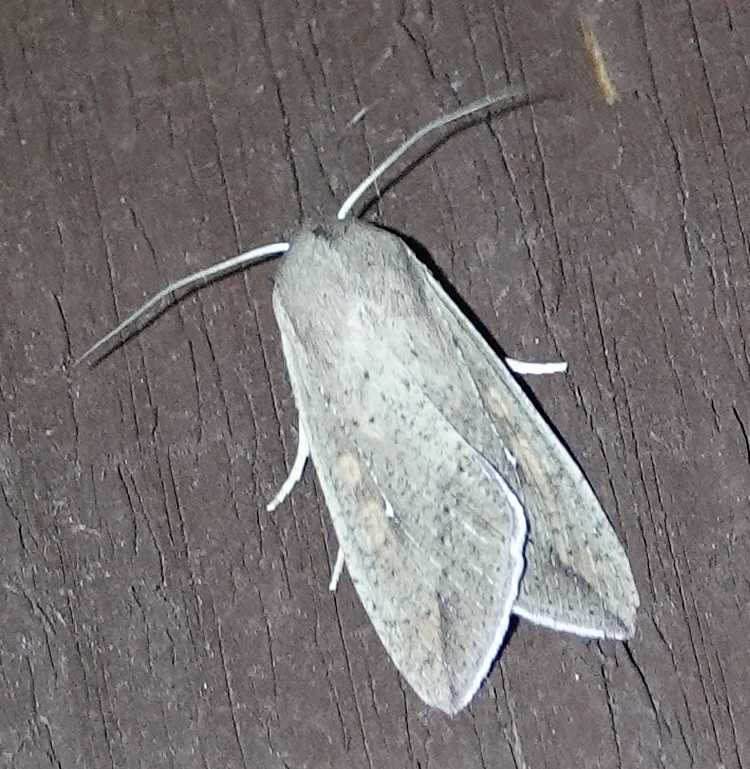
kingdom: Animalia
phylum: Arthropoda
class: Insecta
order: Lepidoptera
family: Noctuidae
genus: Mythimna
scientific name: Mythimna unipuncta
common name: White-speck
